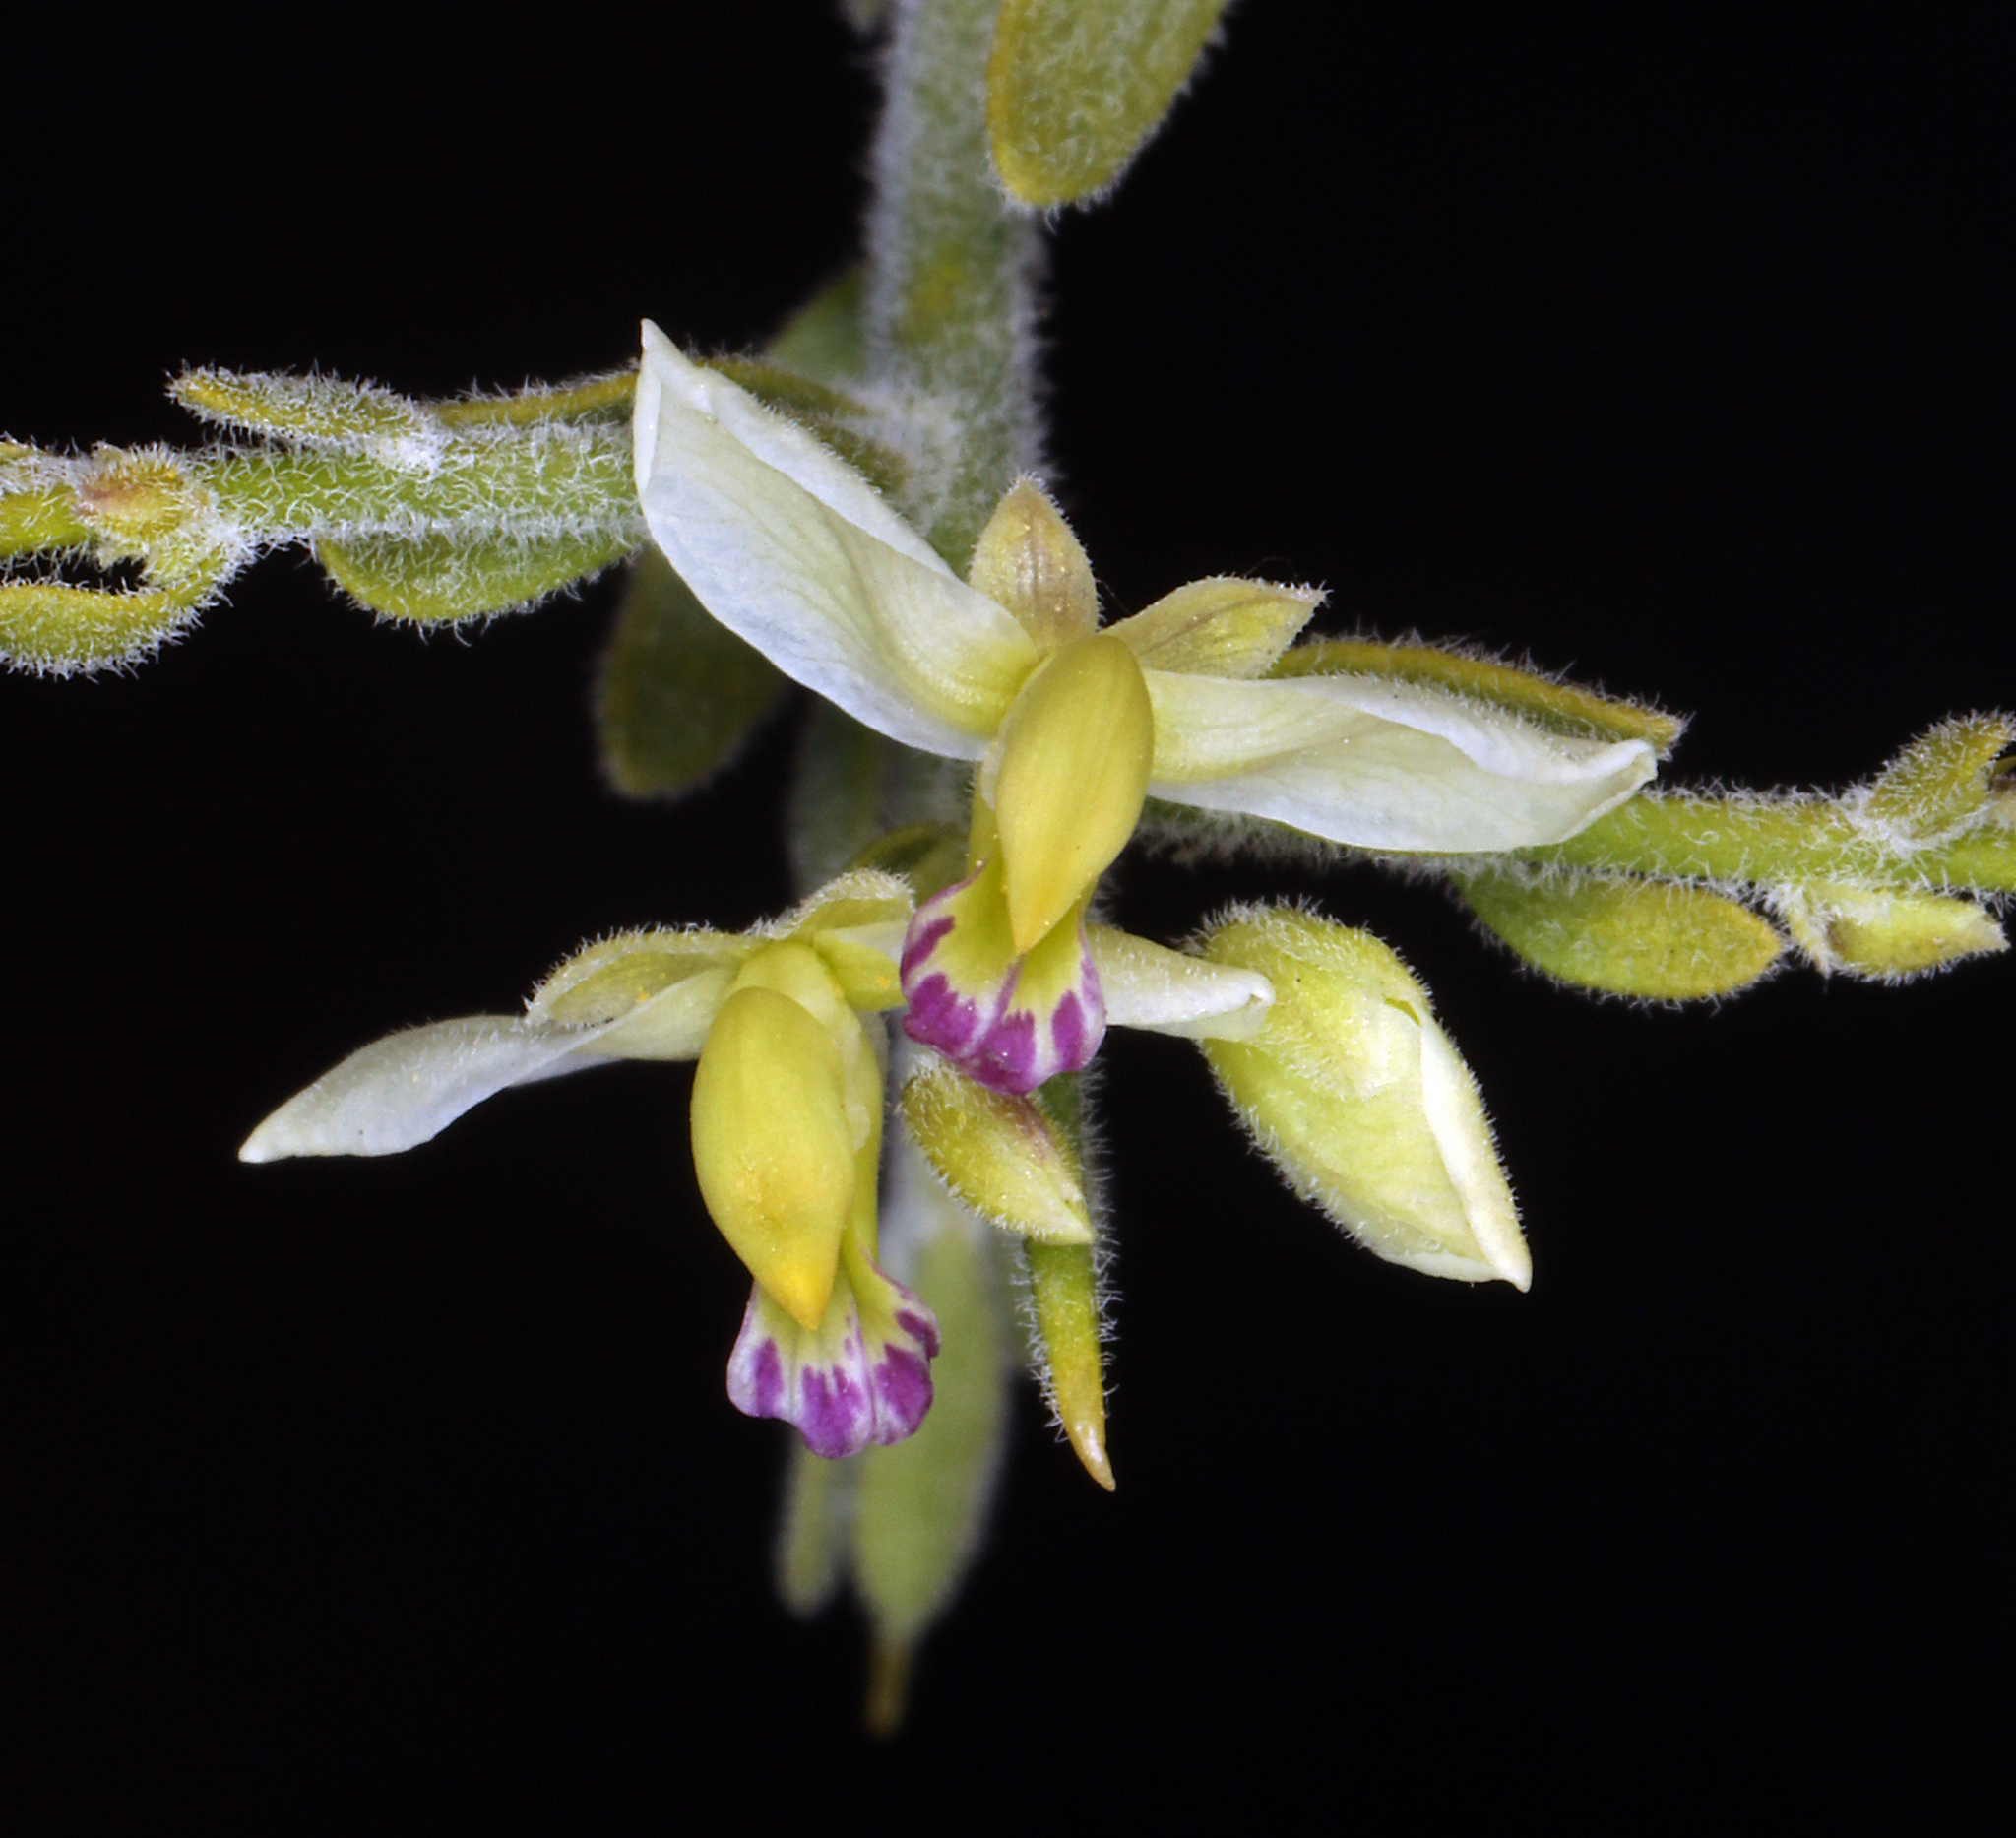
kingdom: Plantae
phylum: Tracheophyta
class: Magnoliopsida
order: Fabales
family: Polygalaceae
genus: Rhinotropis
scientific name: Rhinotropis acanthoclada
